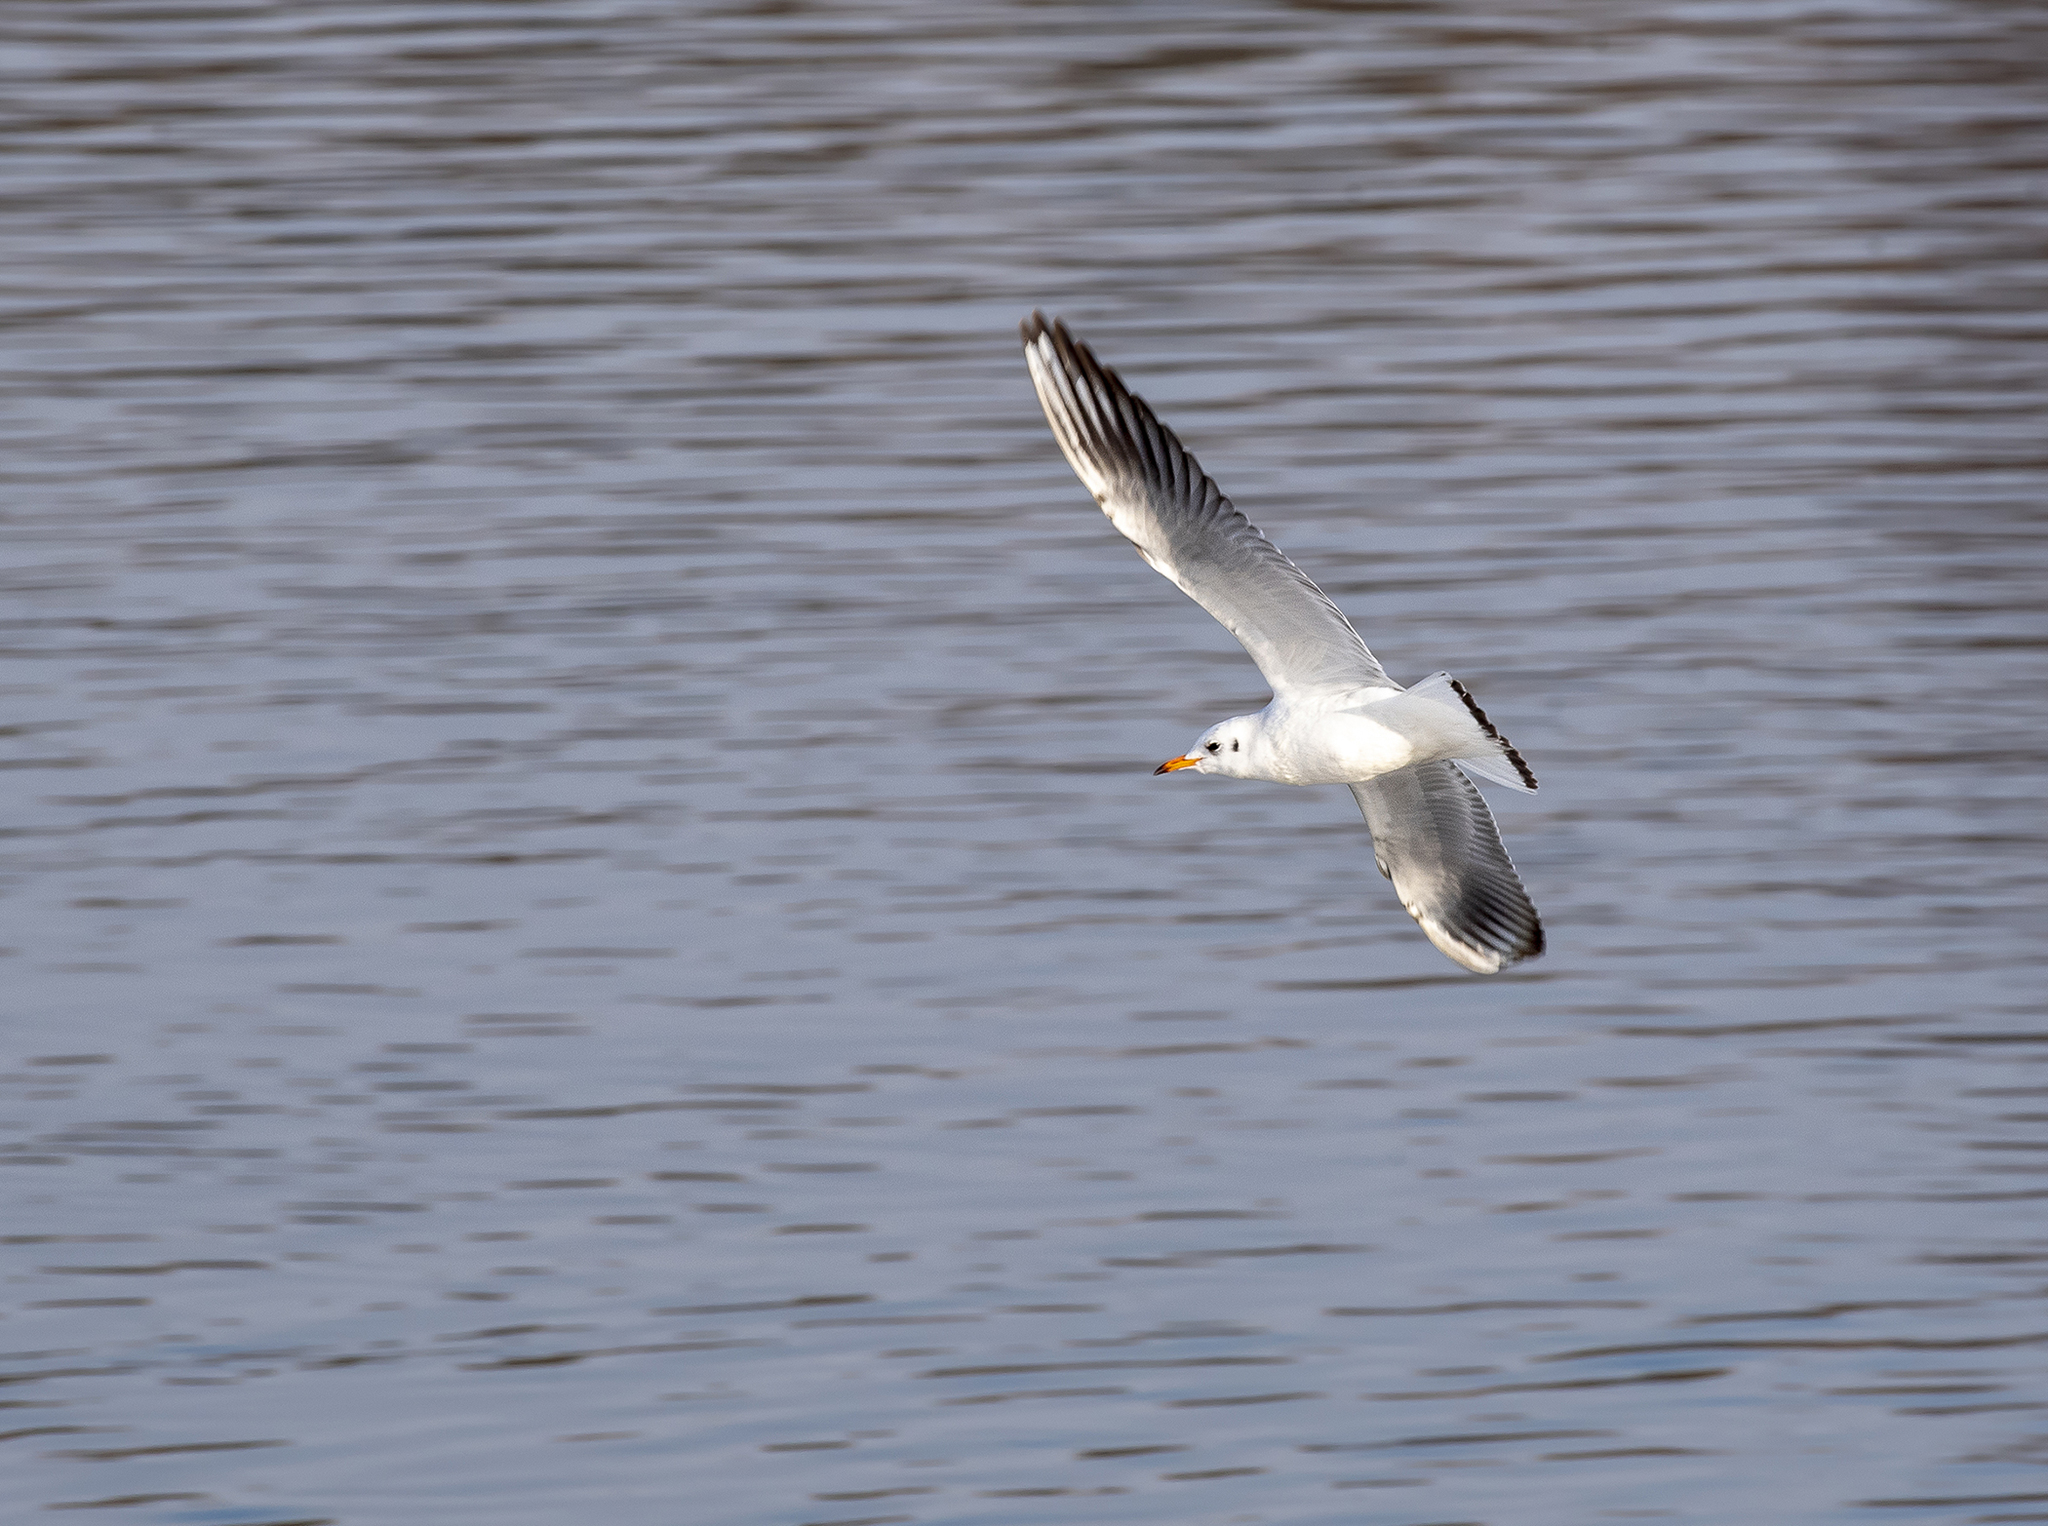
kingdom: Animalia
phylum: Chordata
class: Aves
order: Charadriiformes
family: Laridae
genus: Chroicocephalus
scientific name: Chroicocephalus ridibundus
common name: Black-headed gull
